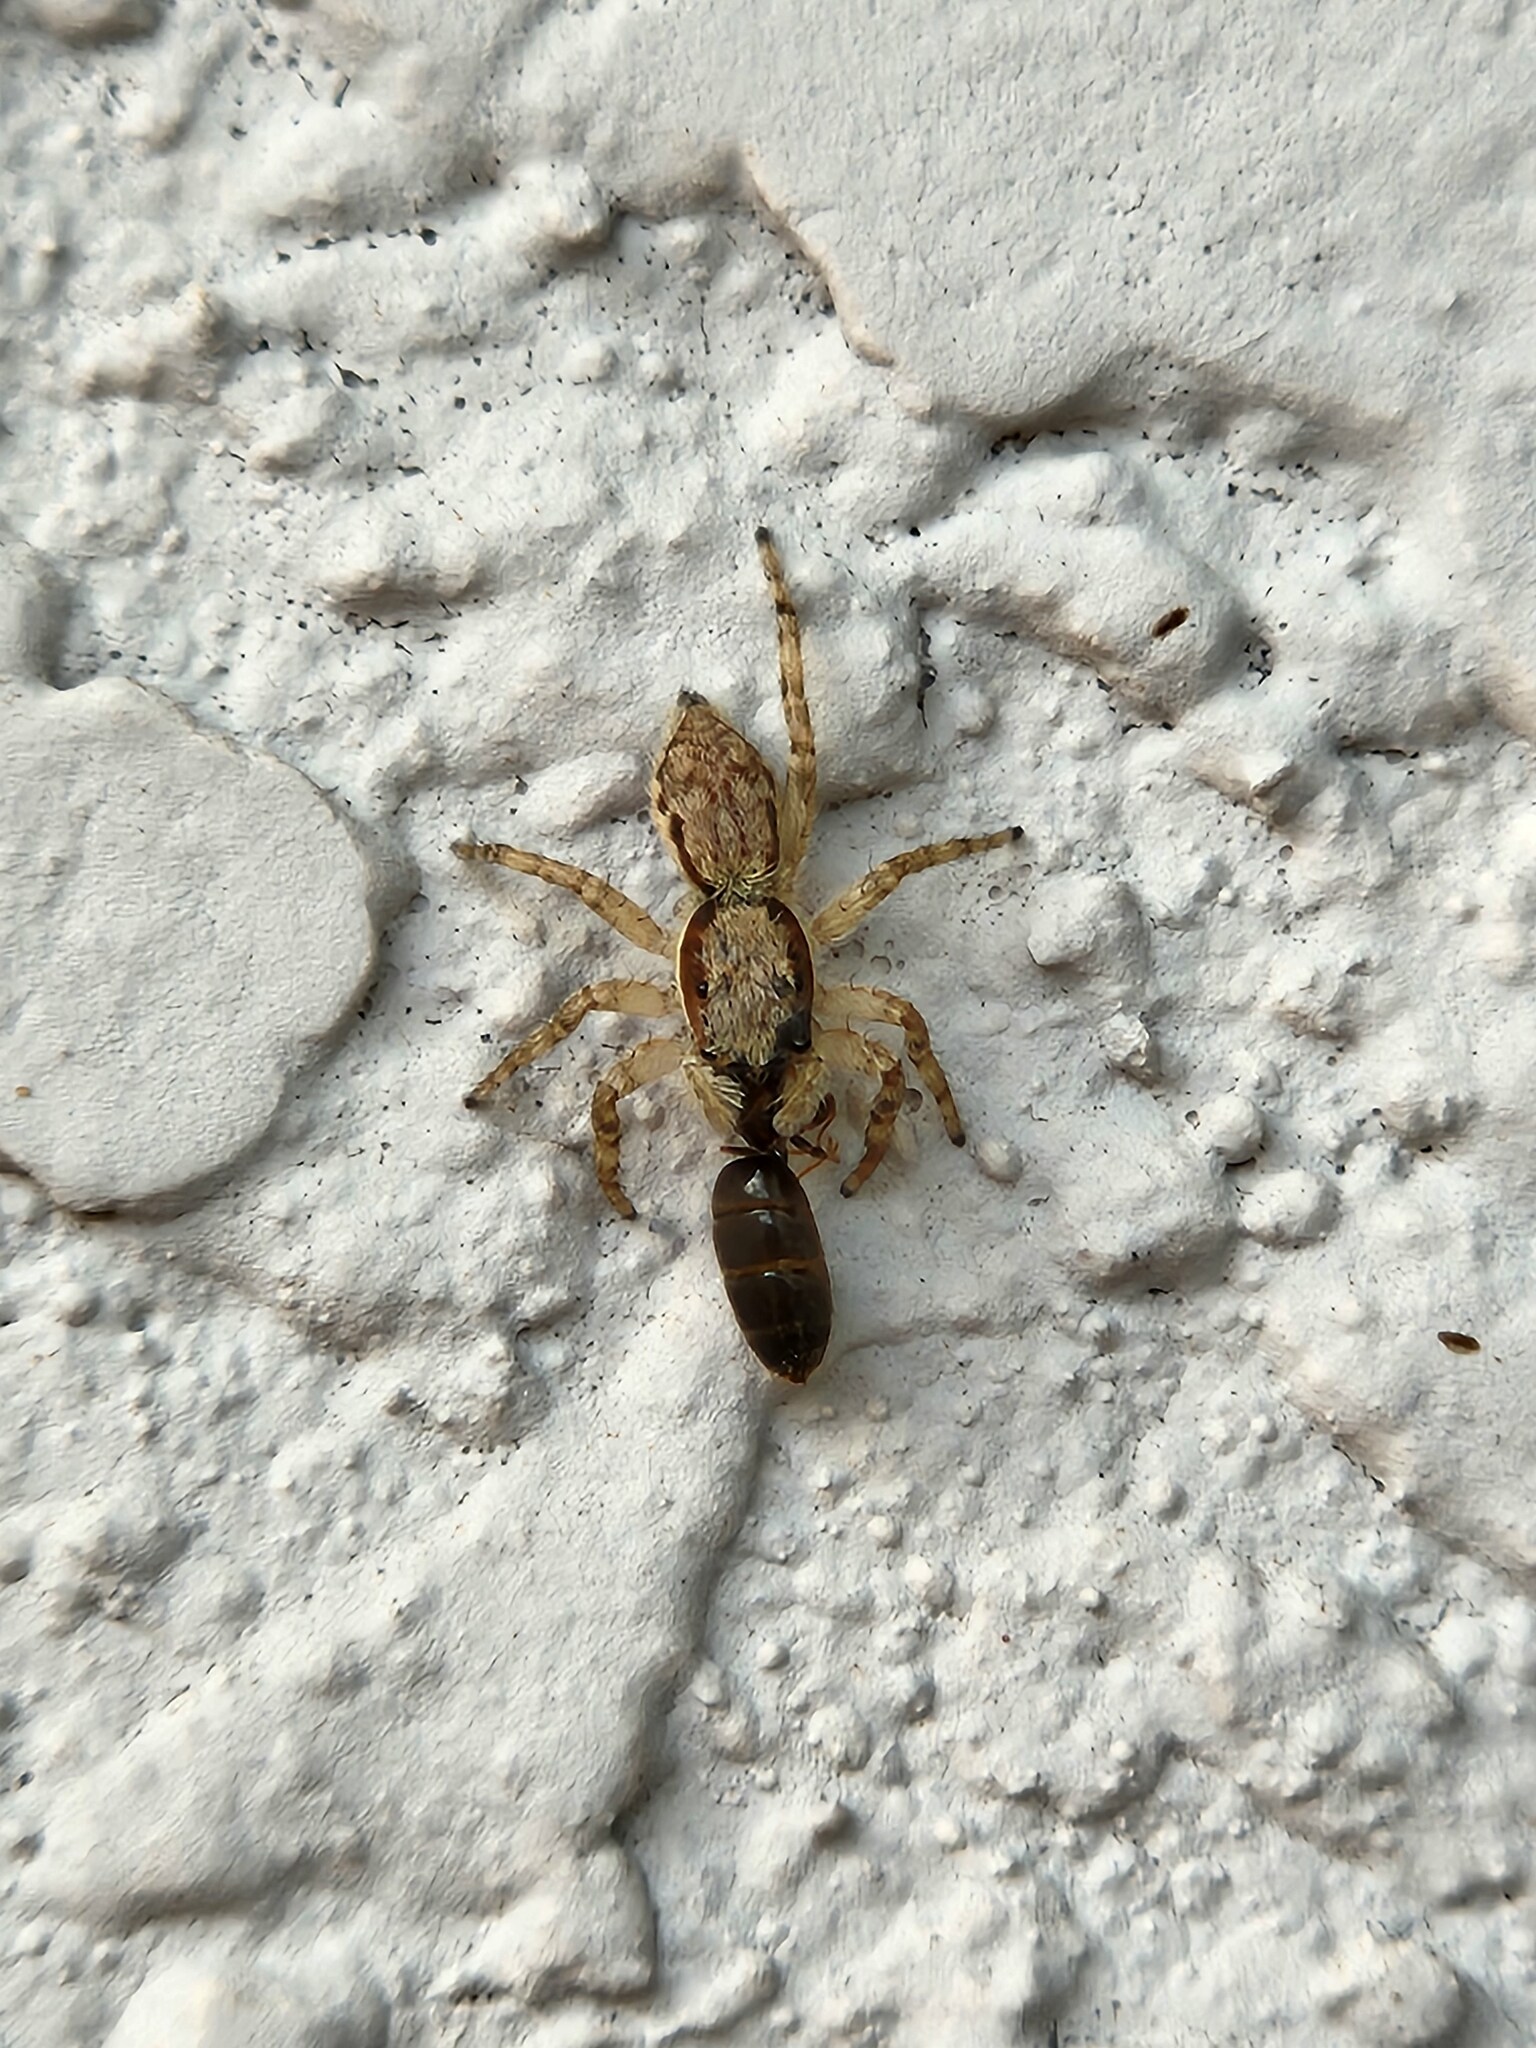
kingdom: Animalia
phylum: Arthropoda
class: Arachnida
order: Araneae
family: Salticidae
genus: Menemerus
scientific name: Menemerus bivittatus
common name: Gray wall jumper
